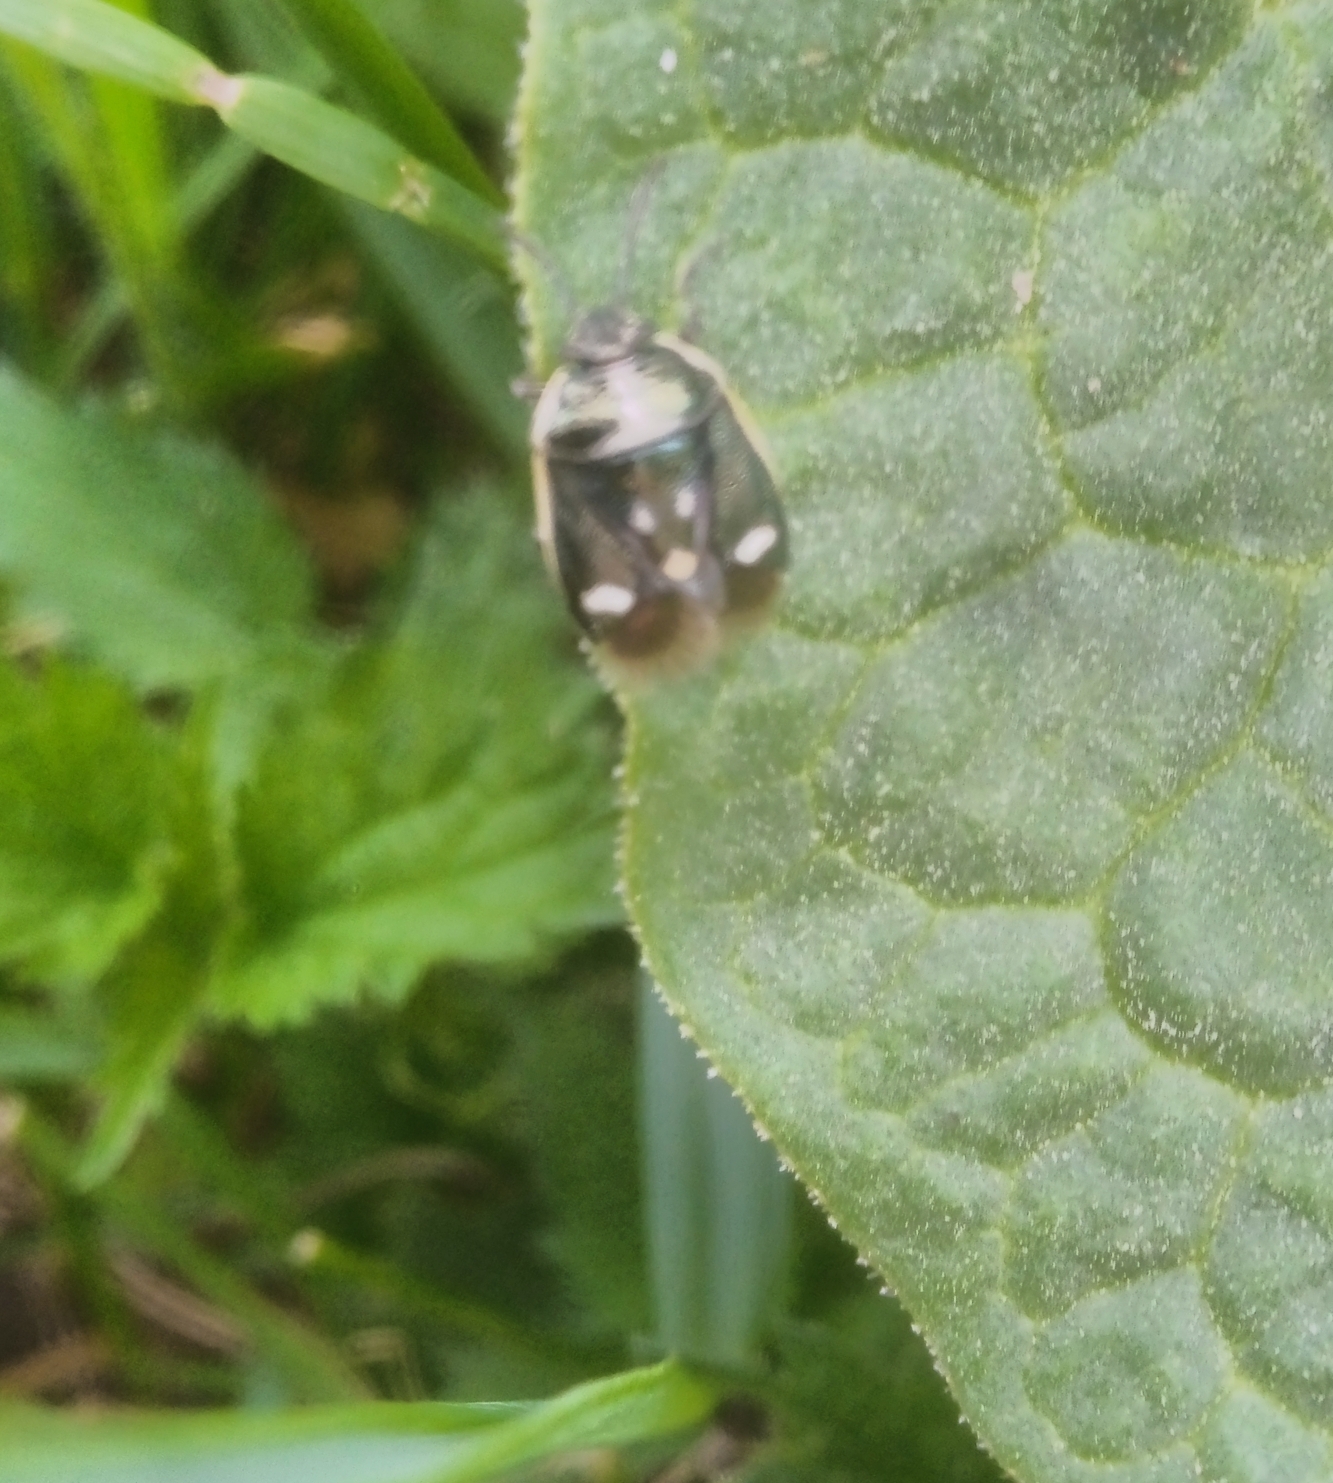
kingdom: Animalia
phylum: Arthropoda
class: Insecta
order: Hemiptera
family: Pentatomidae
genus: Eurydema
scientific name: Eurydema oleracea
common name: Cabbage bug
